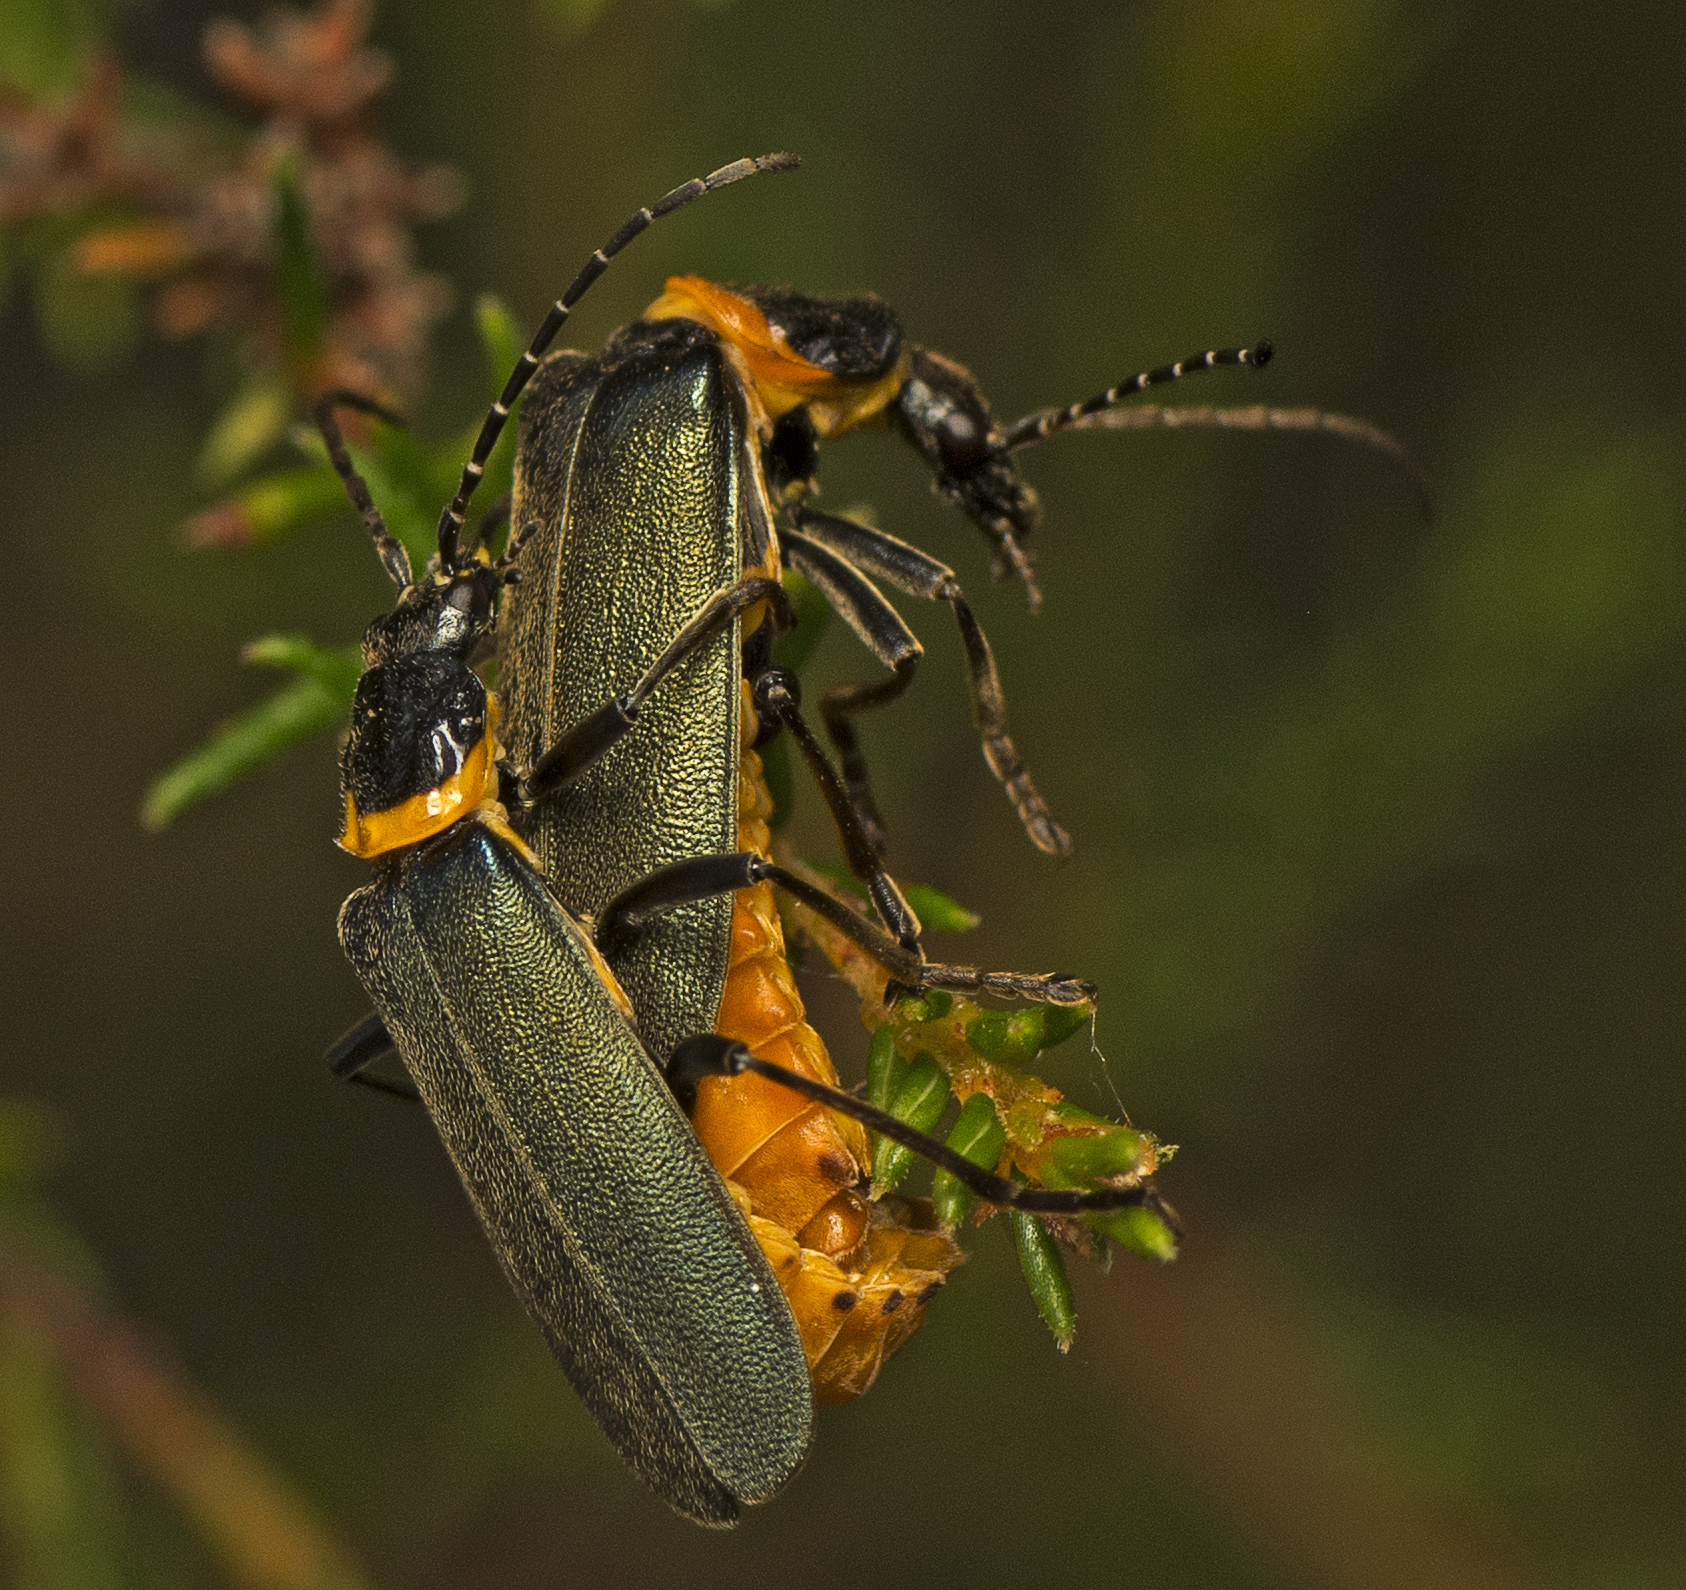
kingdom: Animalia
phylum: Arthropoda
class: Insecta
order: Coleoptera
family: Cantharidae
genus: Chauliognathus
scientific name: Chauliognathus
